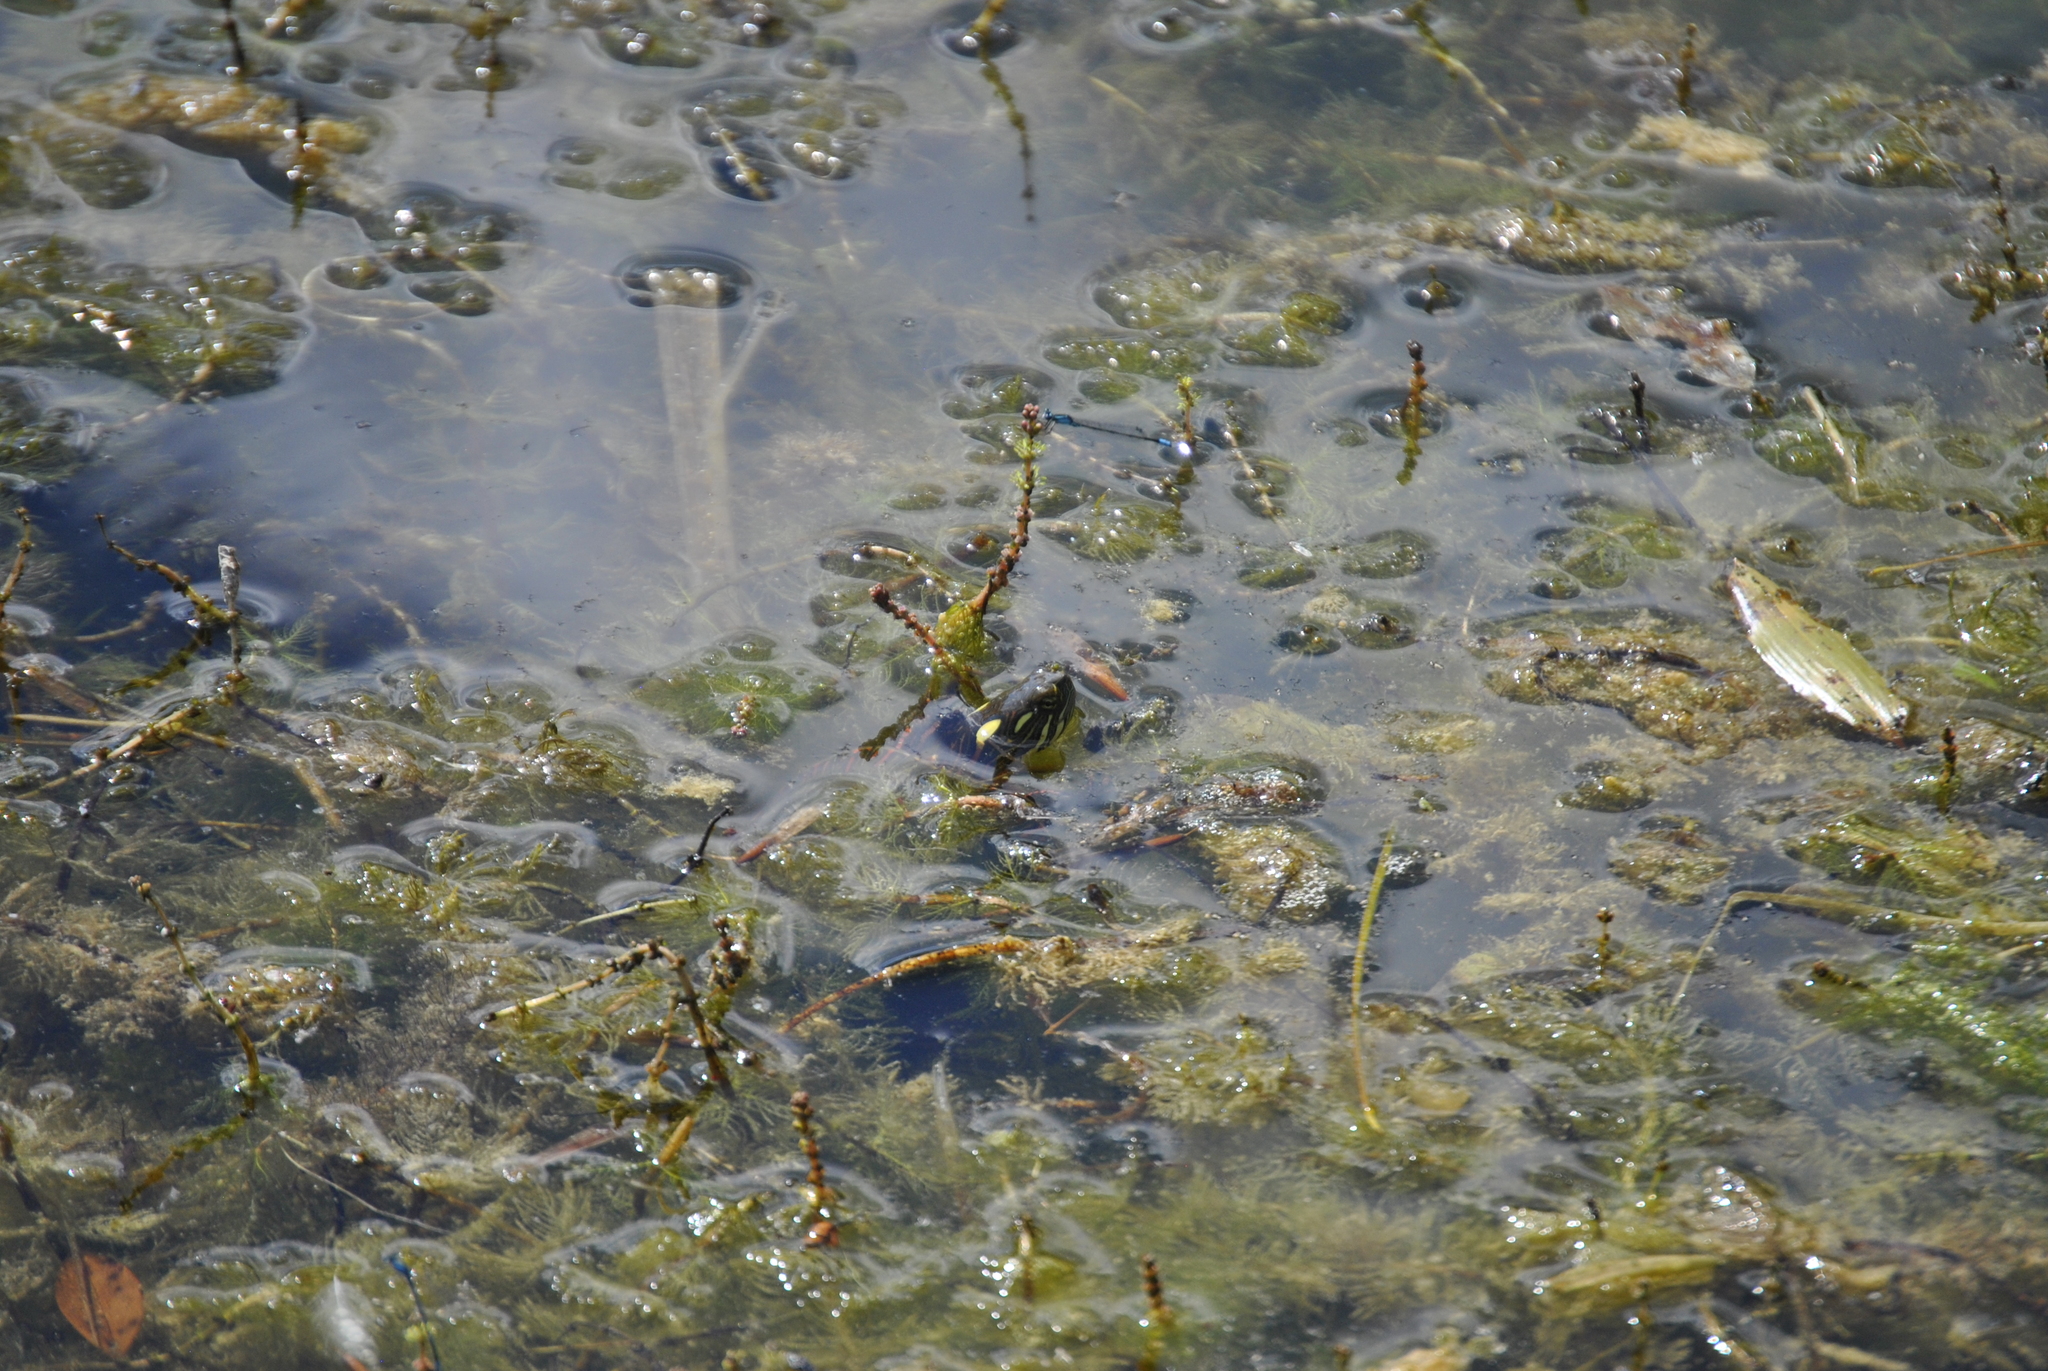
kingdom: Animalia
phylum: Chordata
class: Testudines
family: Emydidae
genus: Chrysemys
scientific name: Chrysemys picta
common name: Painted turtle
